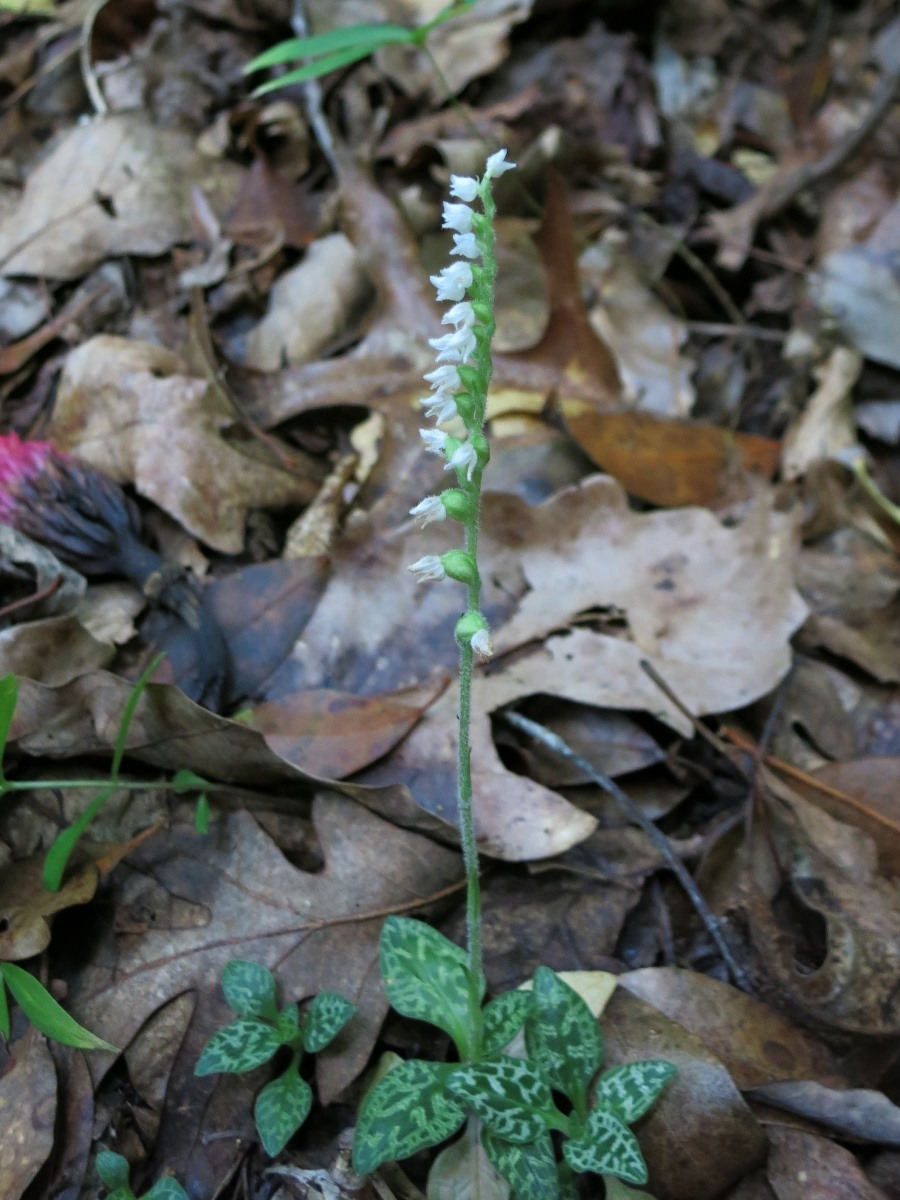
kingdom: Plantae
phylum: Tracheophyta
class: Liliopsida
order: Asparagales
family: Orchidaceae
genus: Goodyera
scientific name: Goodyera repens
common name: Creeping lady's-tresses
